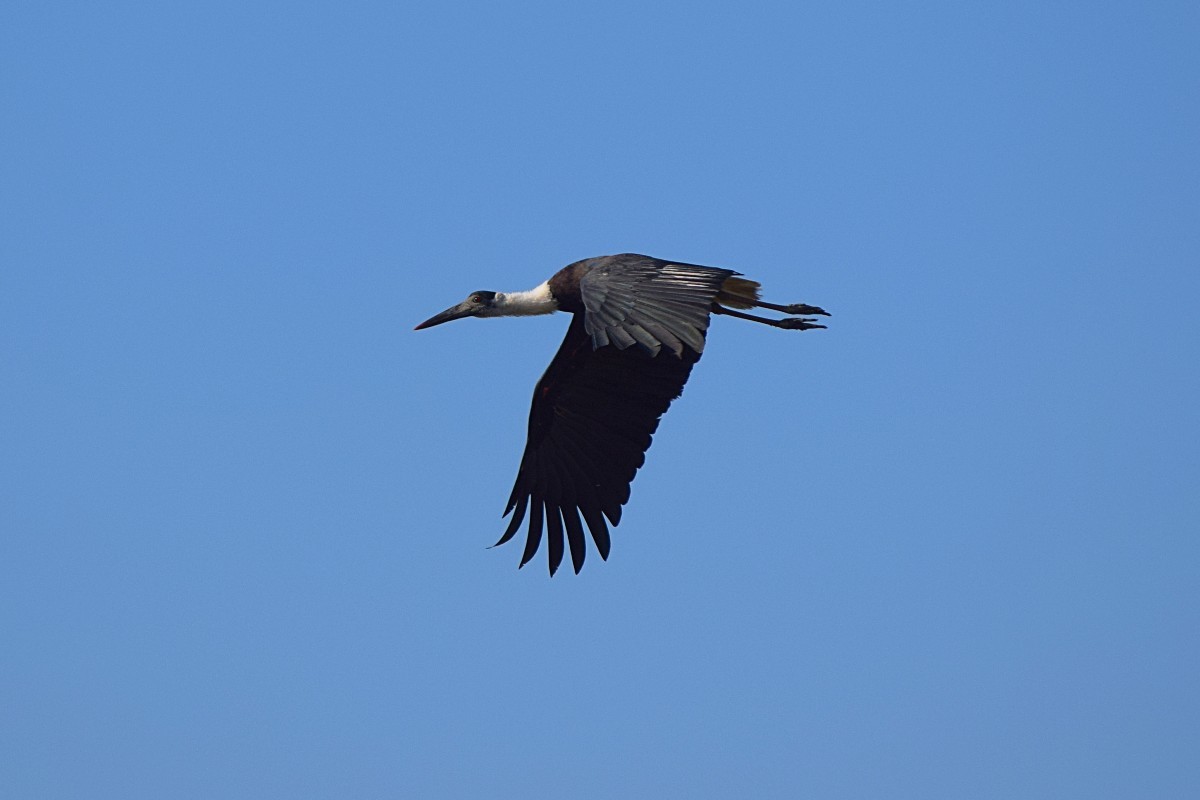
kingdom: Animalia
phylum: Chordata
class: Aves
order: Ciconiiformes
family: Ciconiidae
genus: Ciconia
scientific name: Ciconia episcopus
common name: Woolly-necked stork
